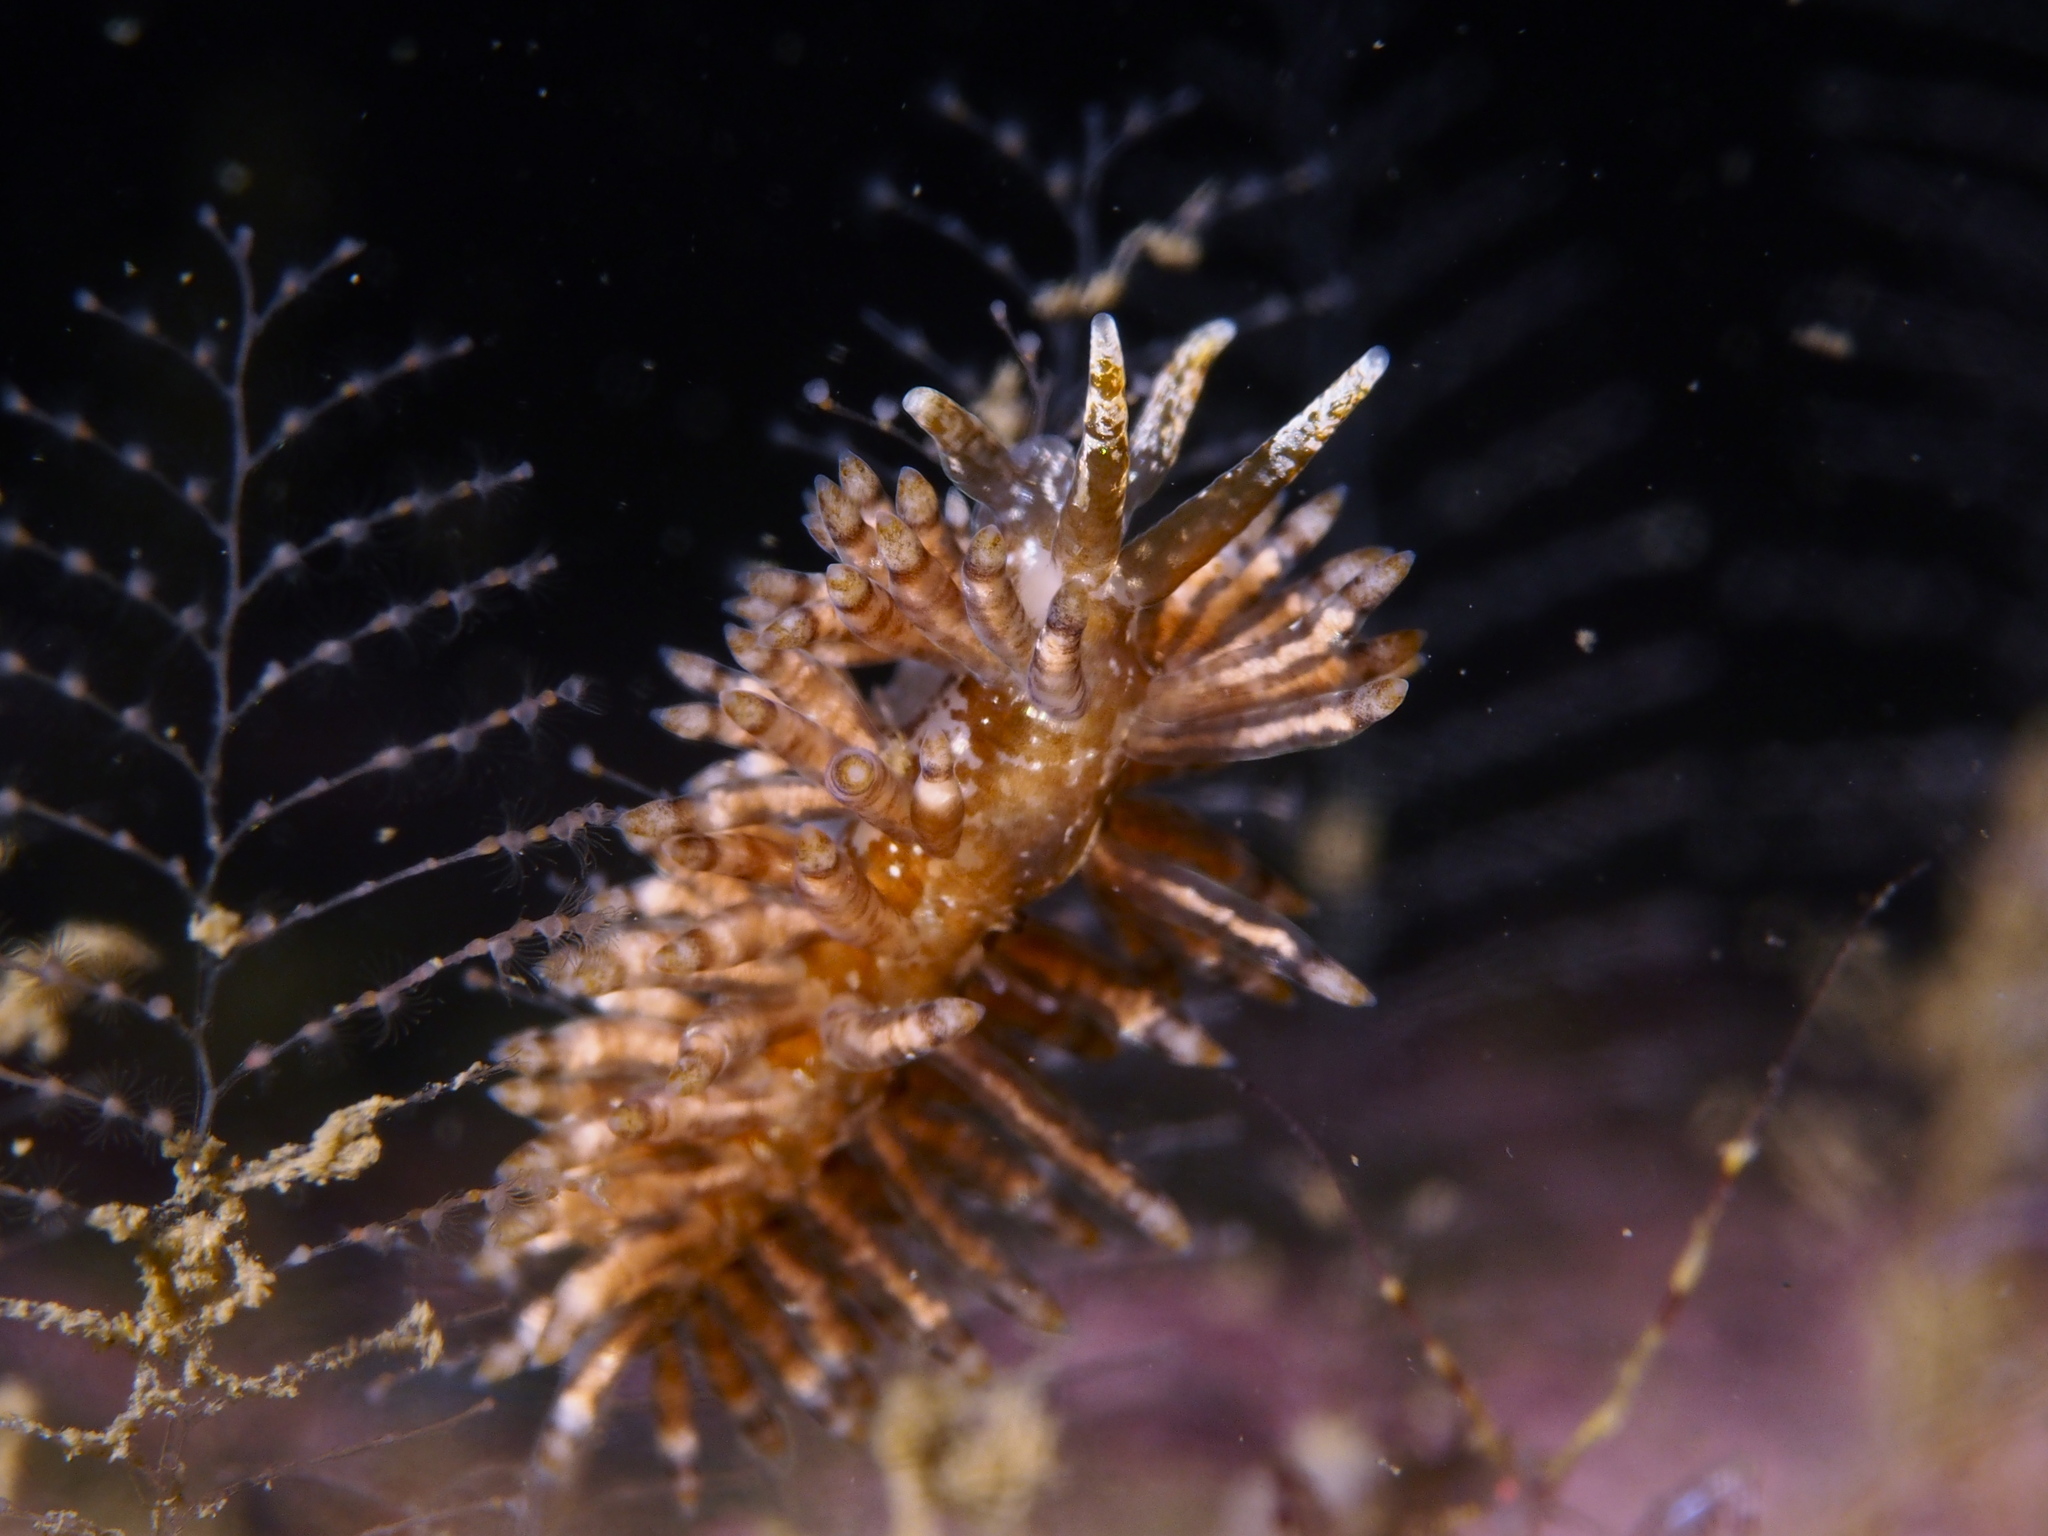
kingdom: Animalia
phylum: Mollusca
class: Gastropoda
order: Nudibranchia
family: Eubranchidae
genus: Eubranchus
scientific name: Eubranchus vittatus
